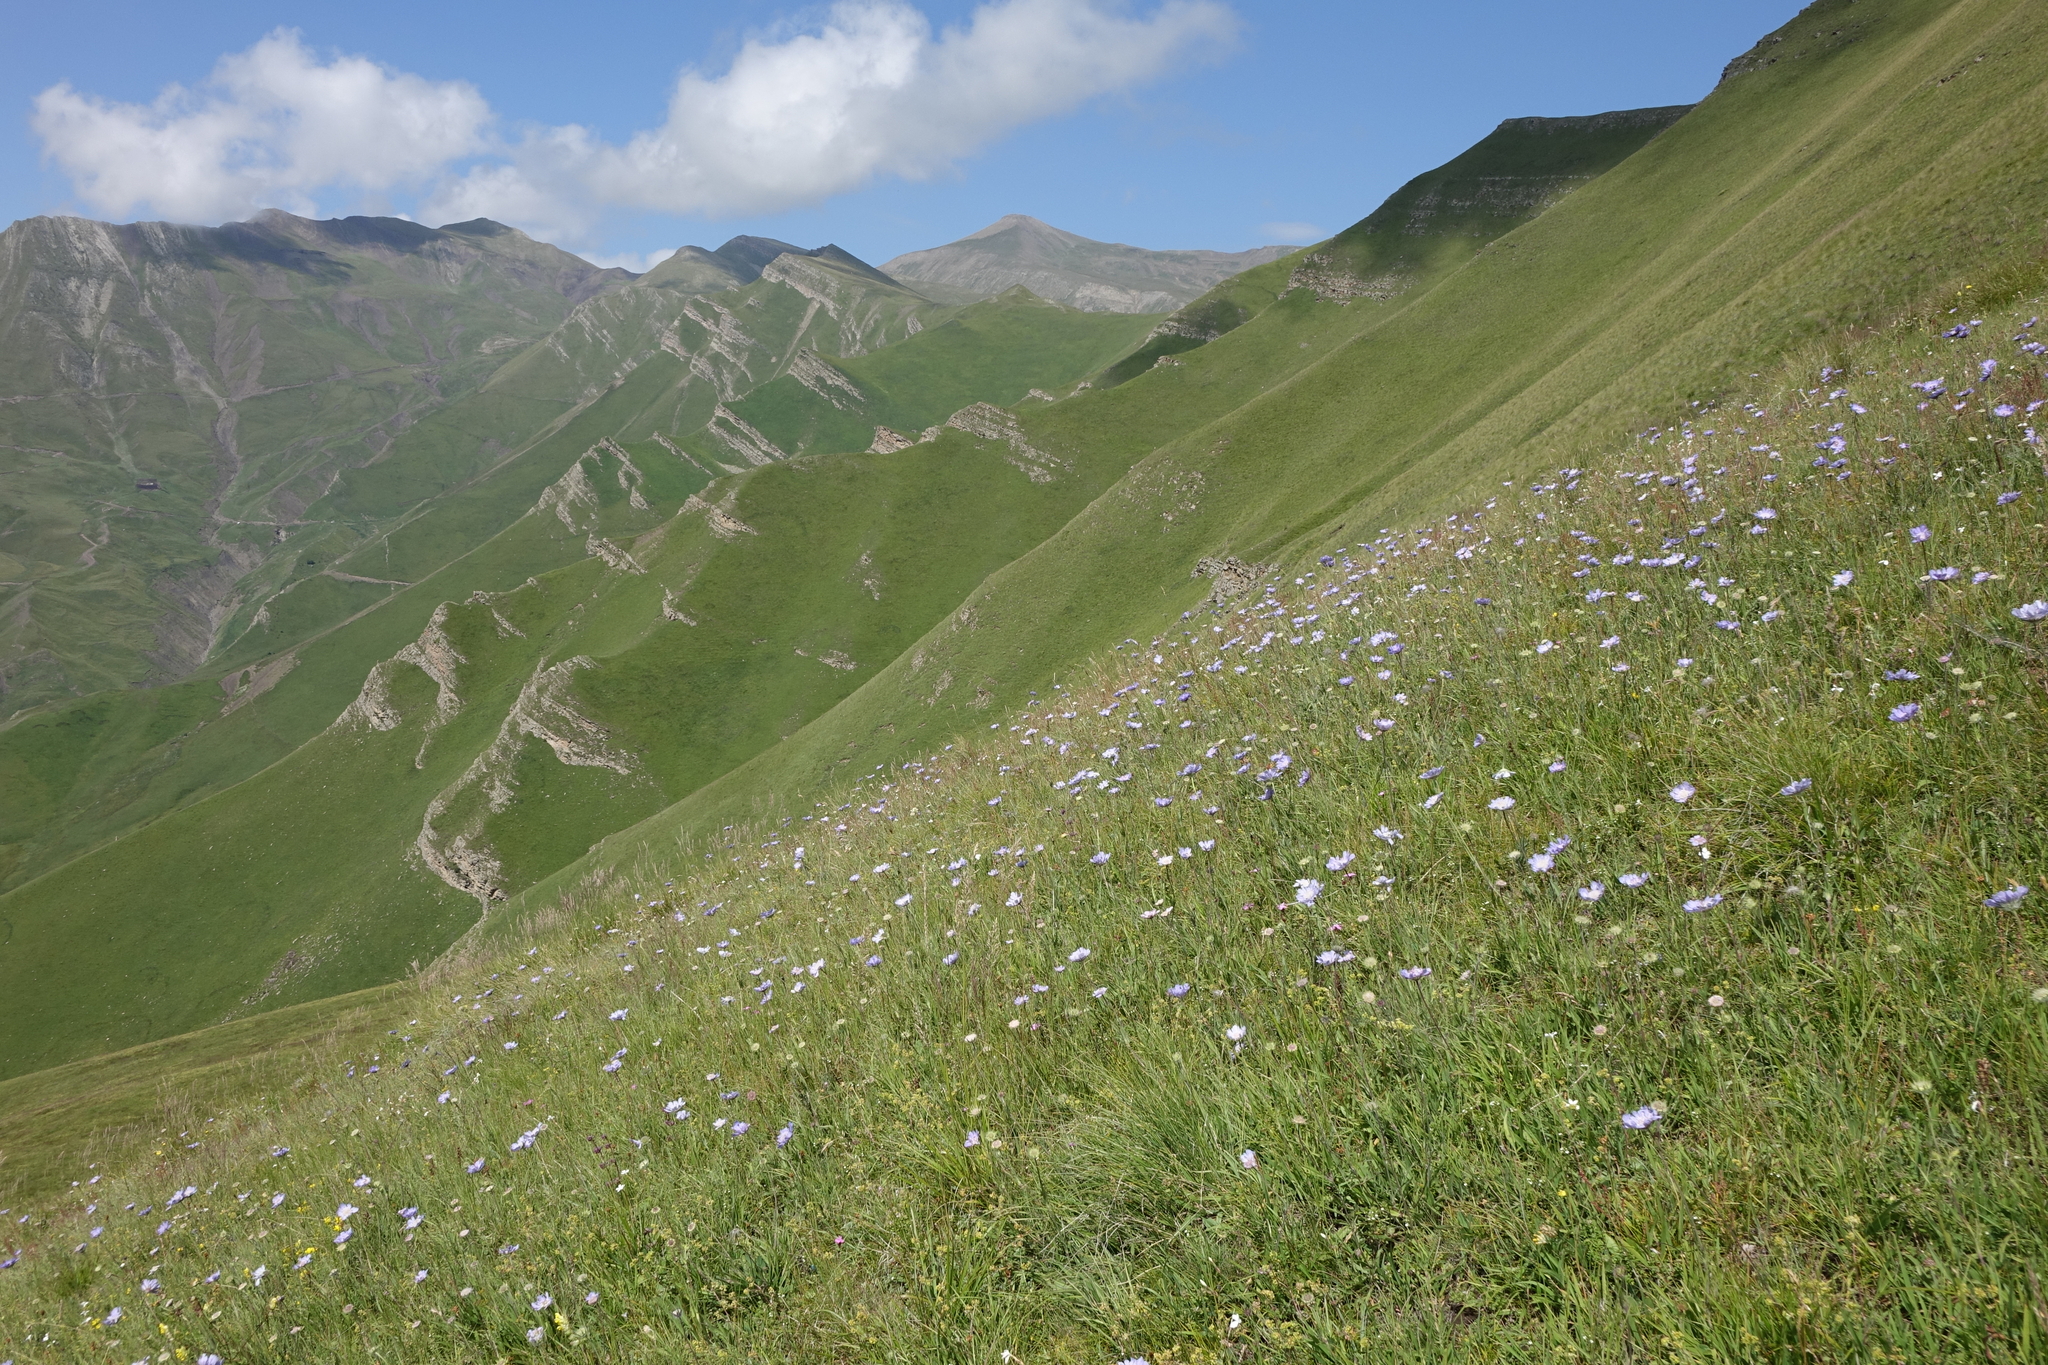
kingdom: Plantae
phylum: Tracheophyta
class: Magnoliopsida
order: Dipsacales
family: Caprifoliaceae
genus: Lomelosia
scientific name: Lomelosia caucasica
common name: Pincushion-flower
